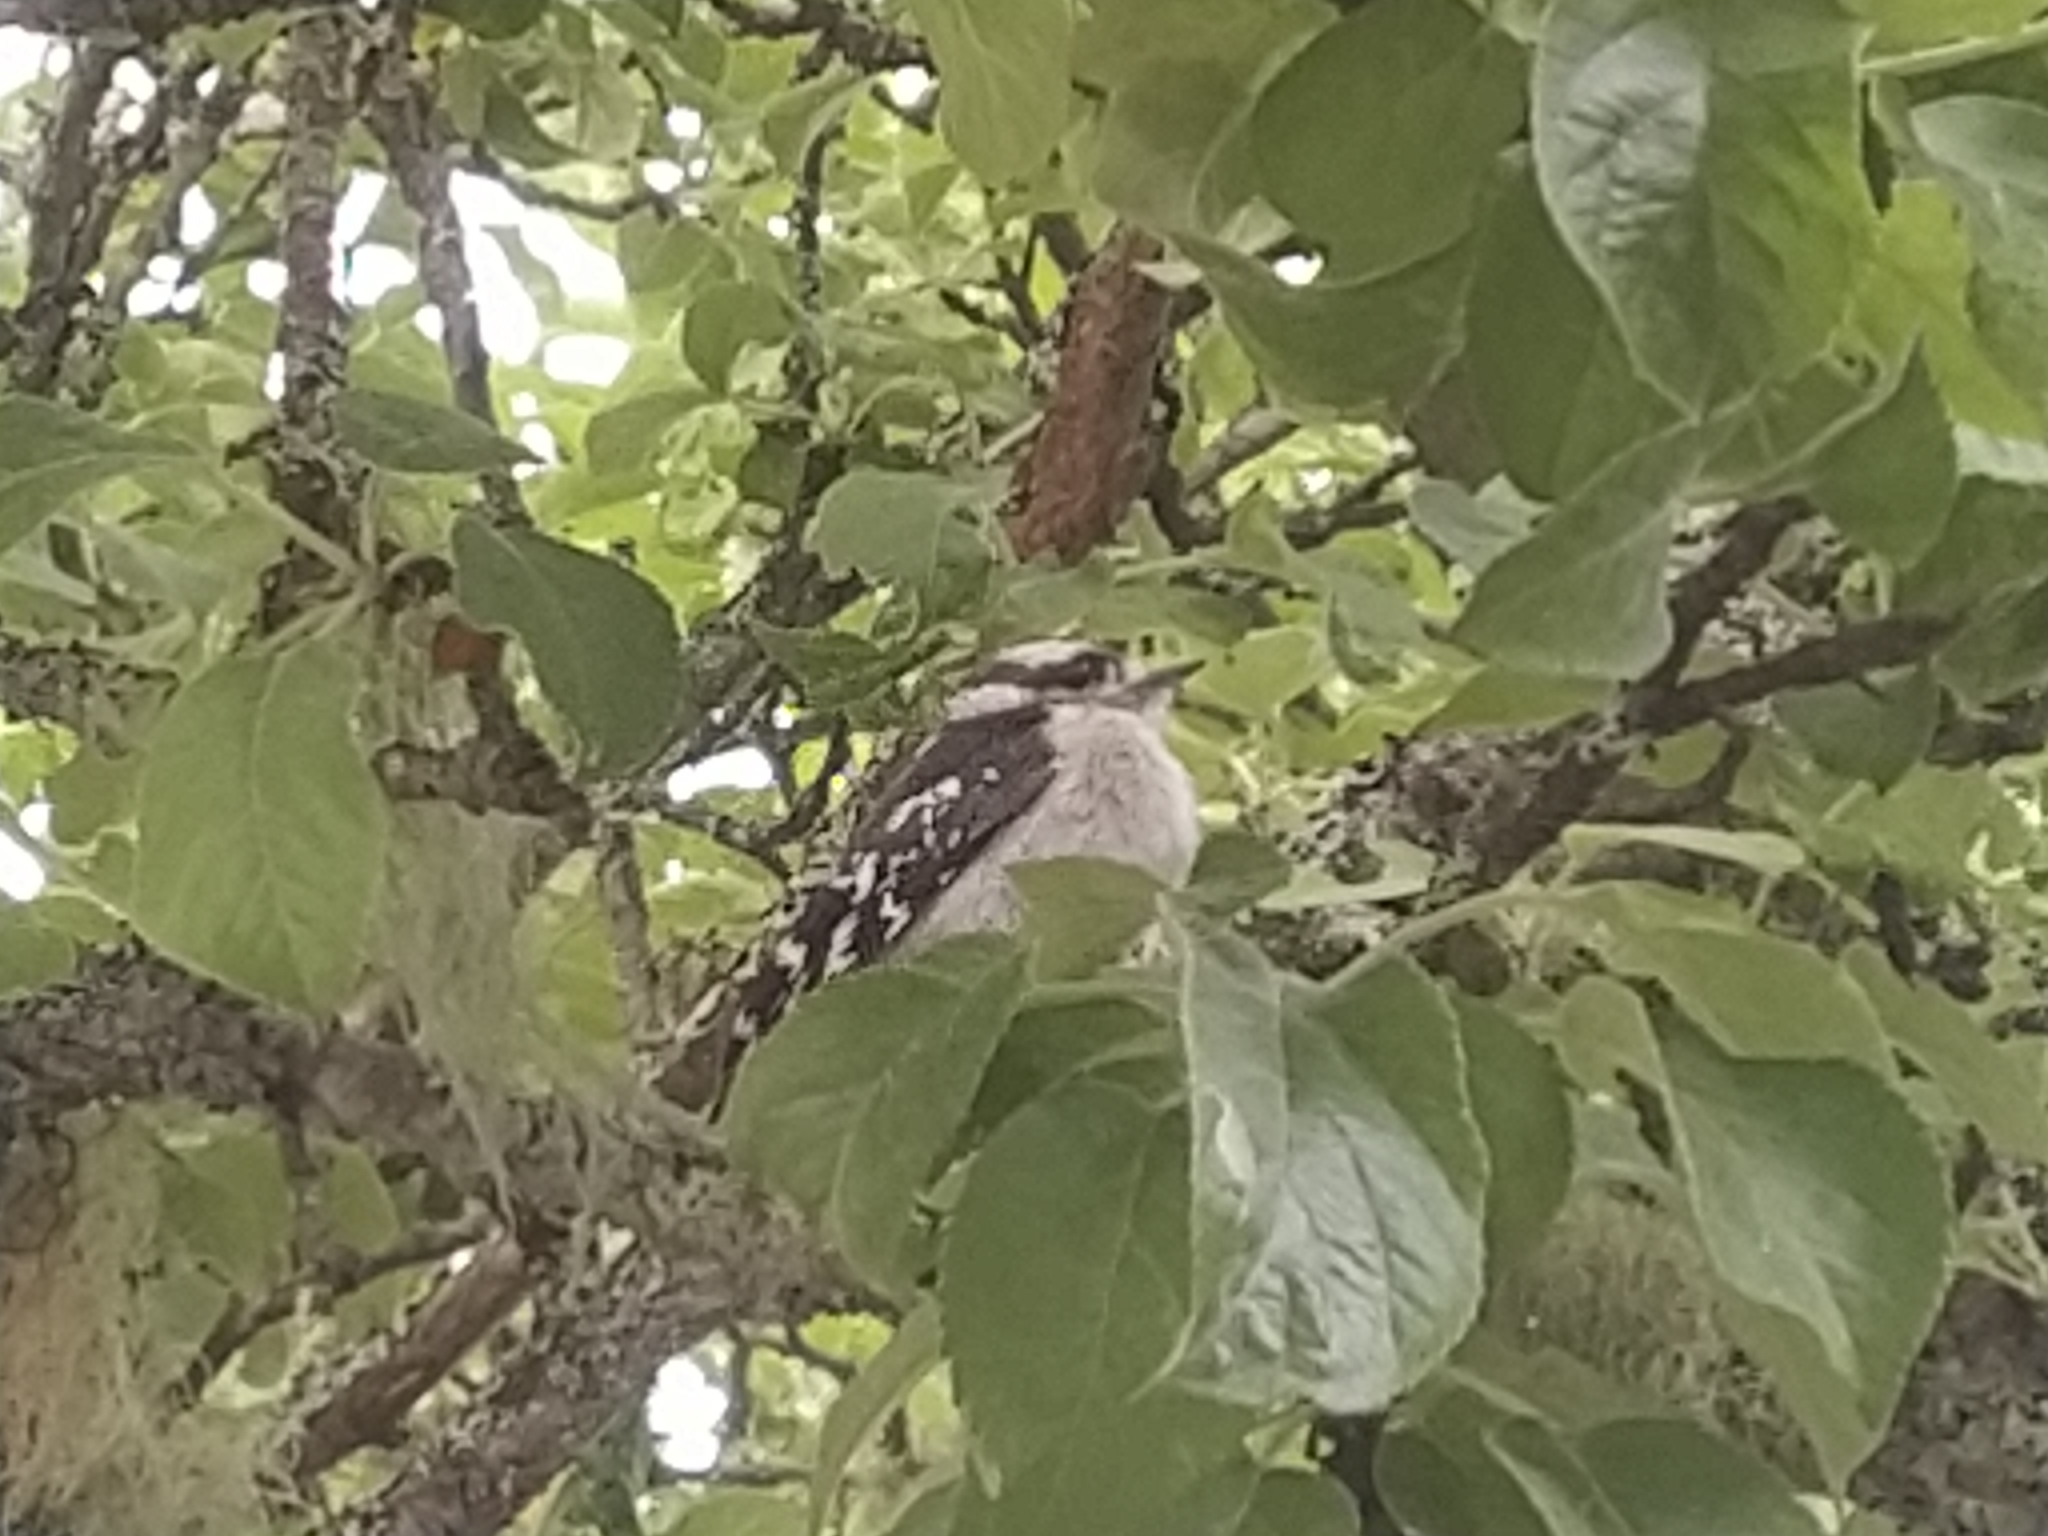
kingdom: Animalia
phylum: Chordata
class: Aves
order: Piciformes
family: Picidae
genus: Dryobates
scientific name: Dryobates pubescens
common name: Downy woodpecker
